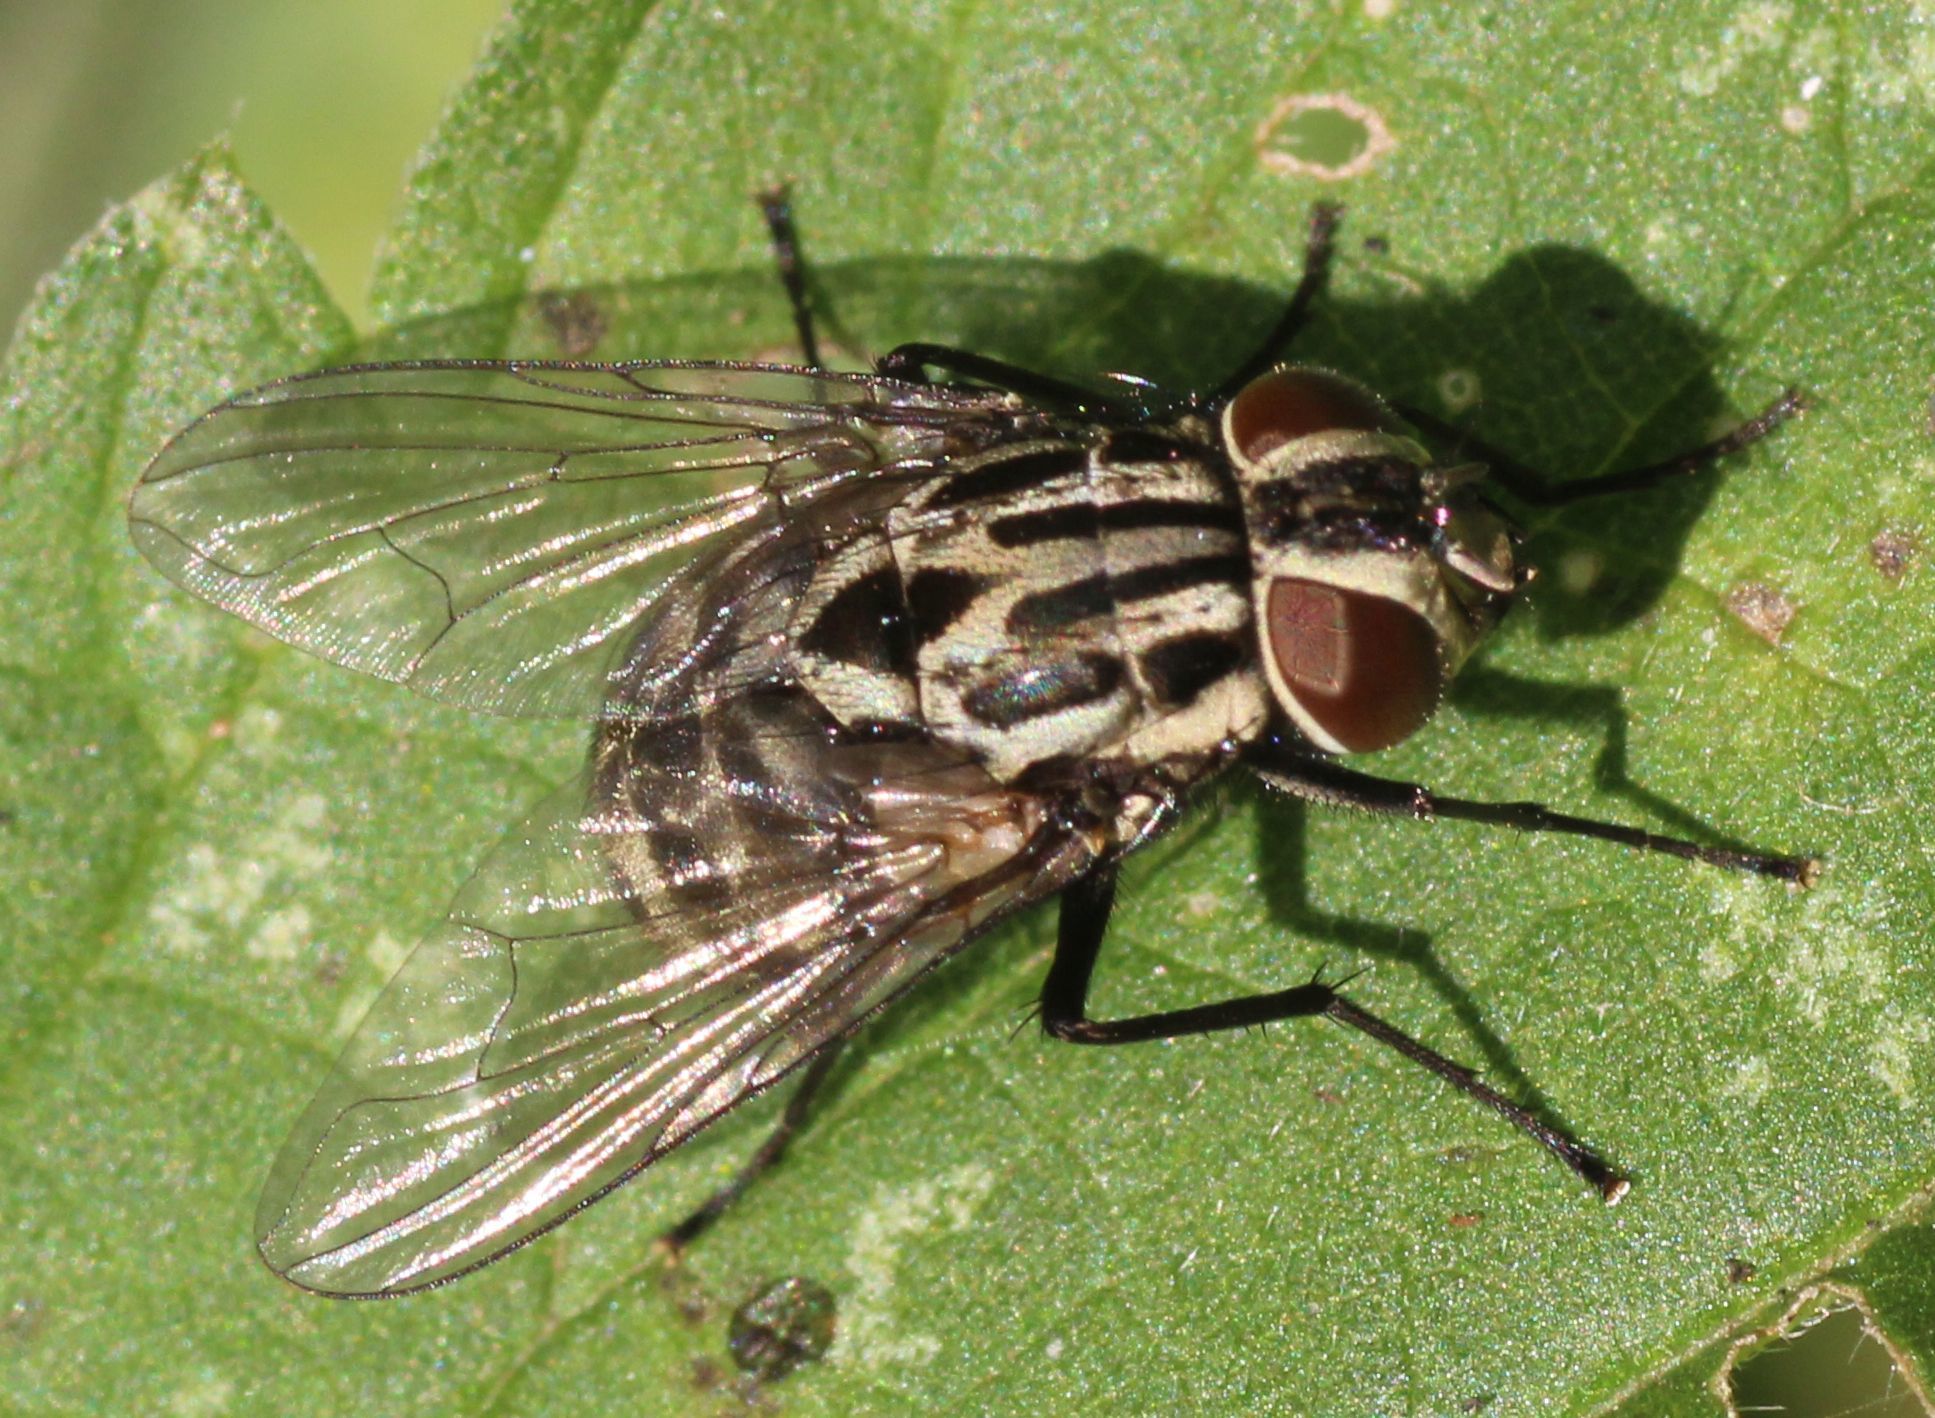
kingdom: Animalia
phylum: Arthropoda
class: Insecta
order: Diptera
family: Muscidae
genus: Graphomya
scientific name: Graphomya maculata
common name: Muscid fly
